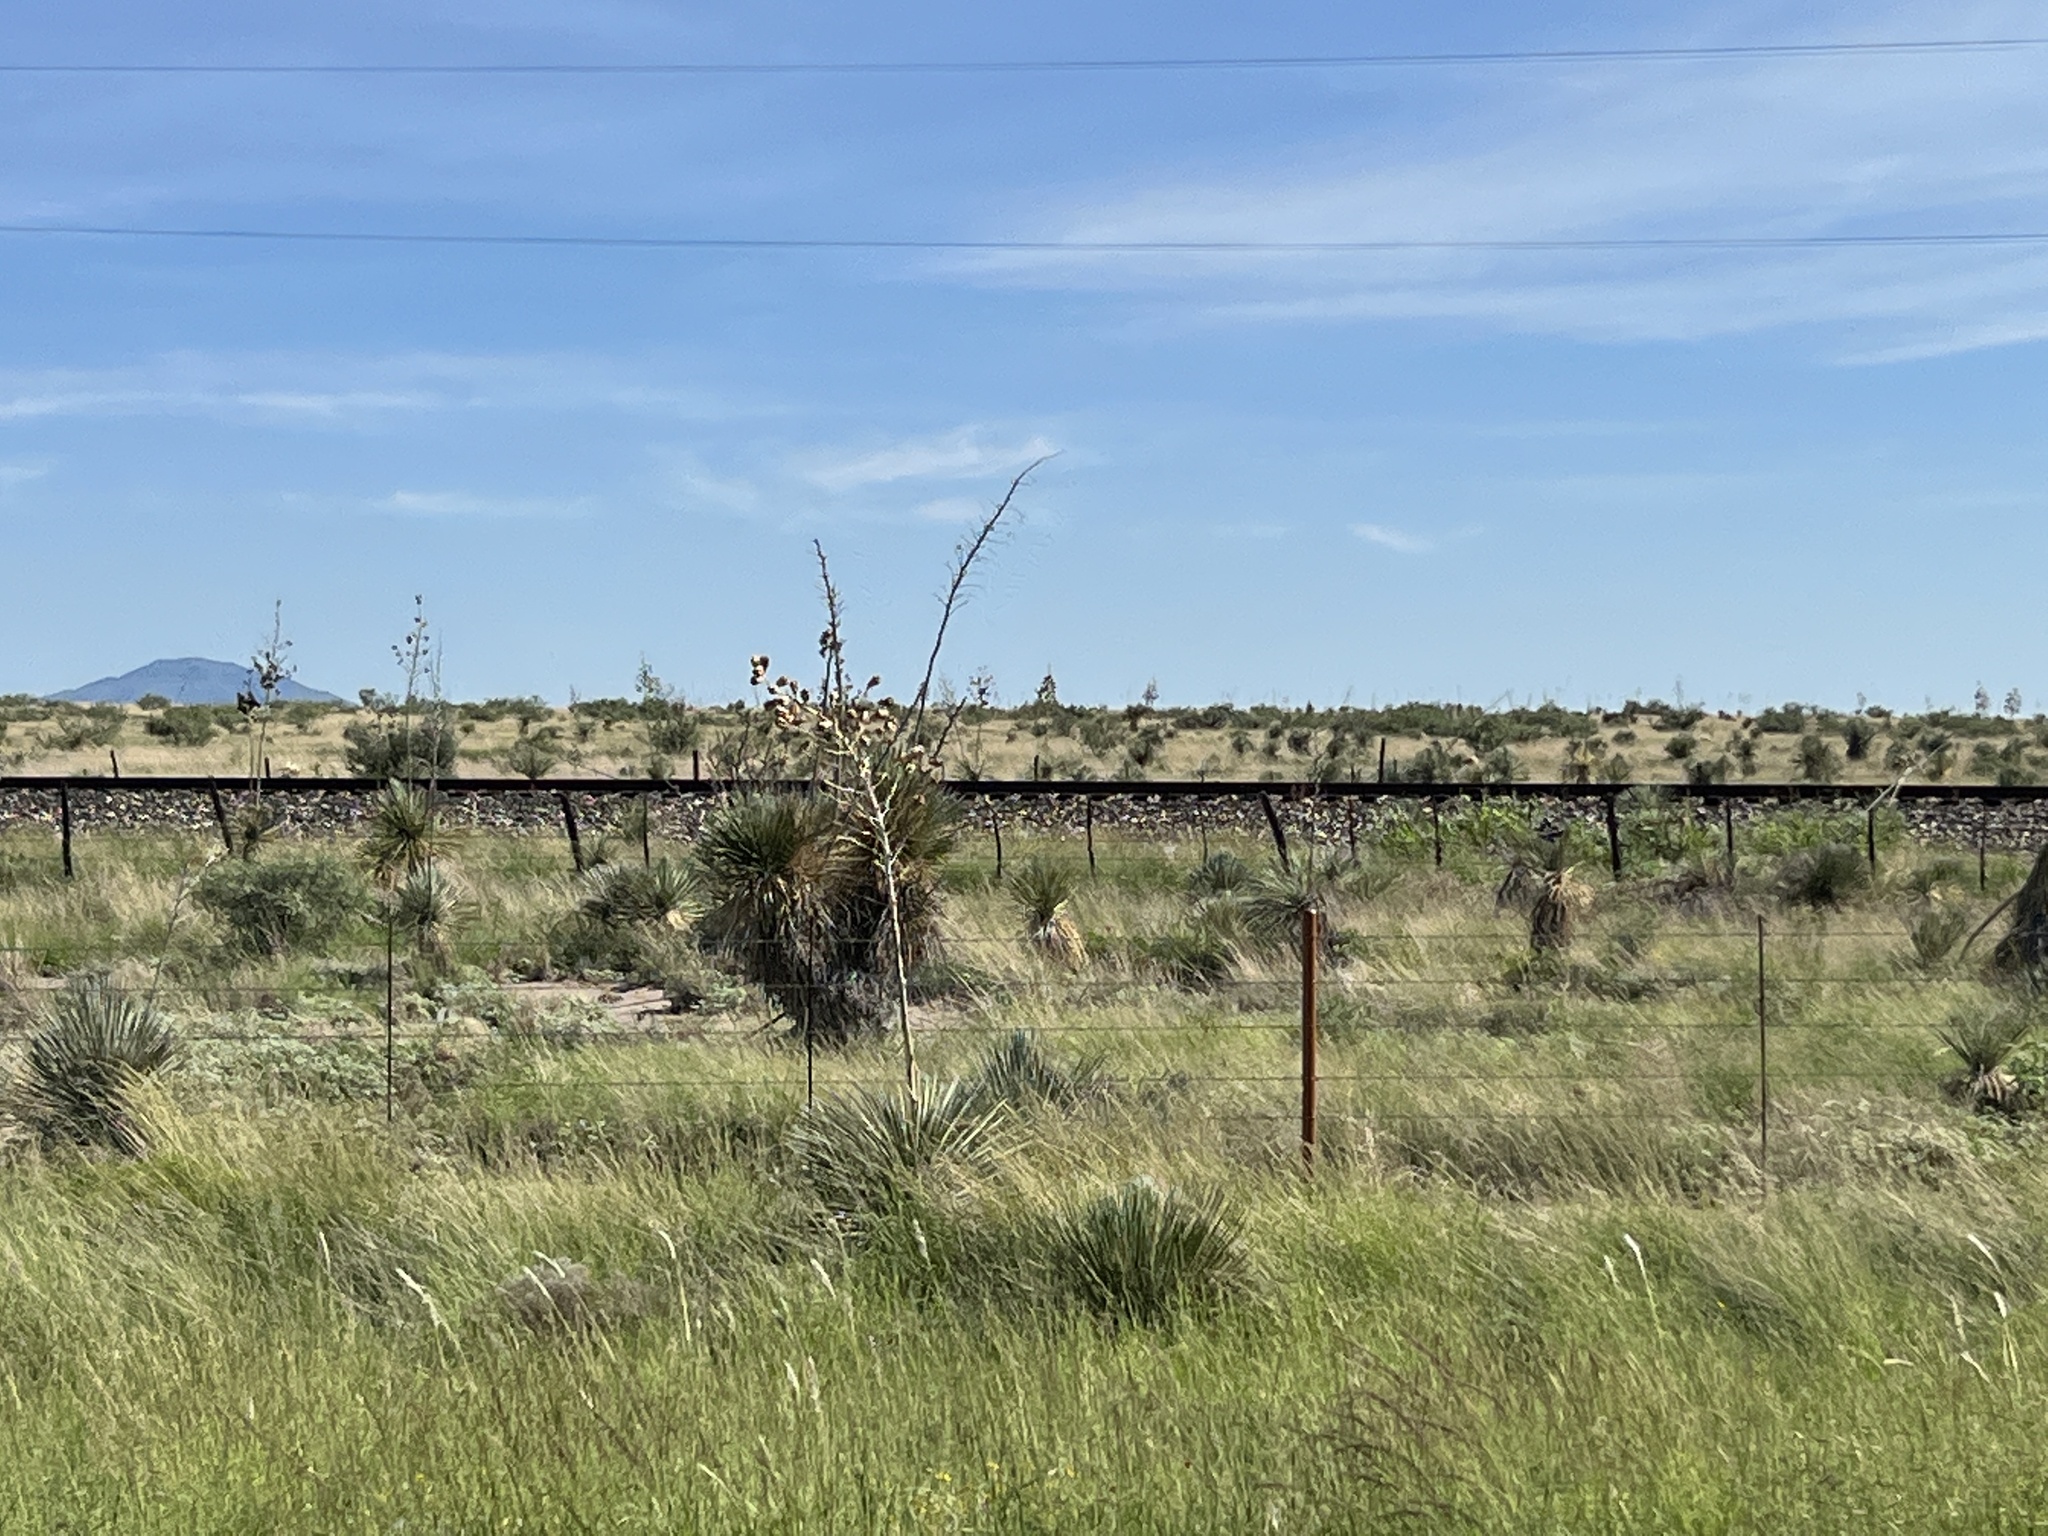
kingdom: Plantae
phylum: Tracheophyta
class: Liliopsida
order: Asparagales
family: Asparagaceae
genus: Yucca
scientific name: Yucca elata
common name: Palmella
